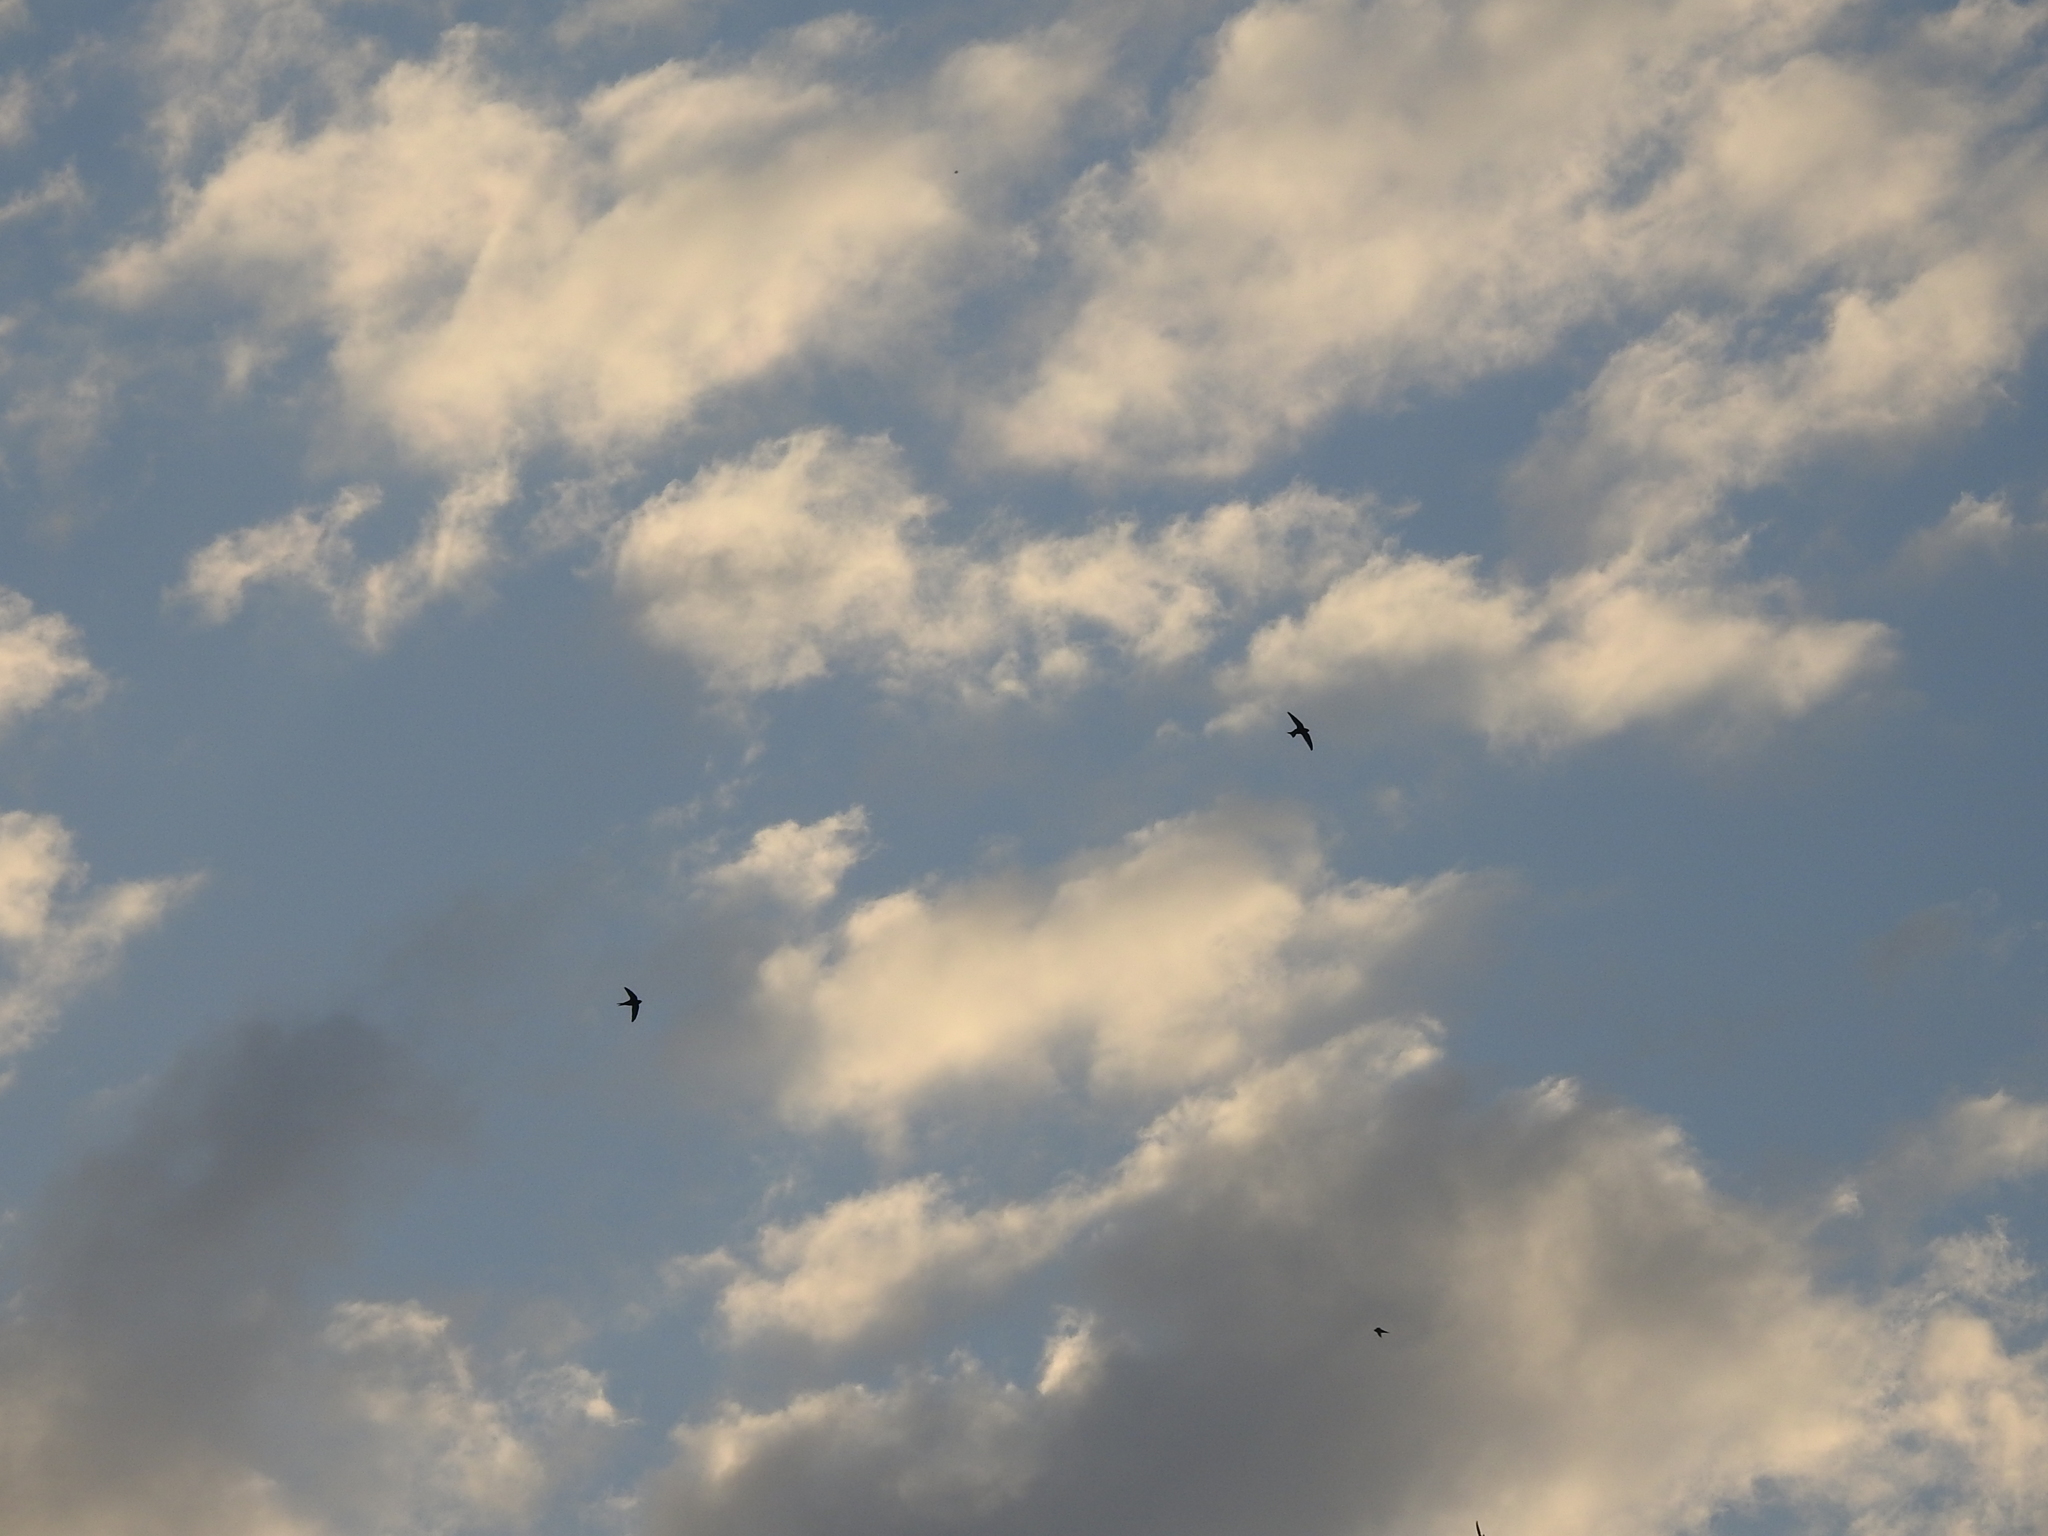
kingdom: Animalia
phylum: Chordata
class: Aves
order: Apodiformes
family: Apodidae
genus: Apus
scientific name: Apus apus
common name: Common swift
